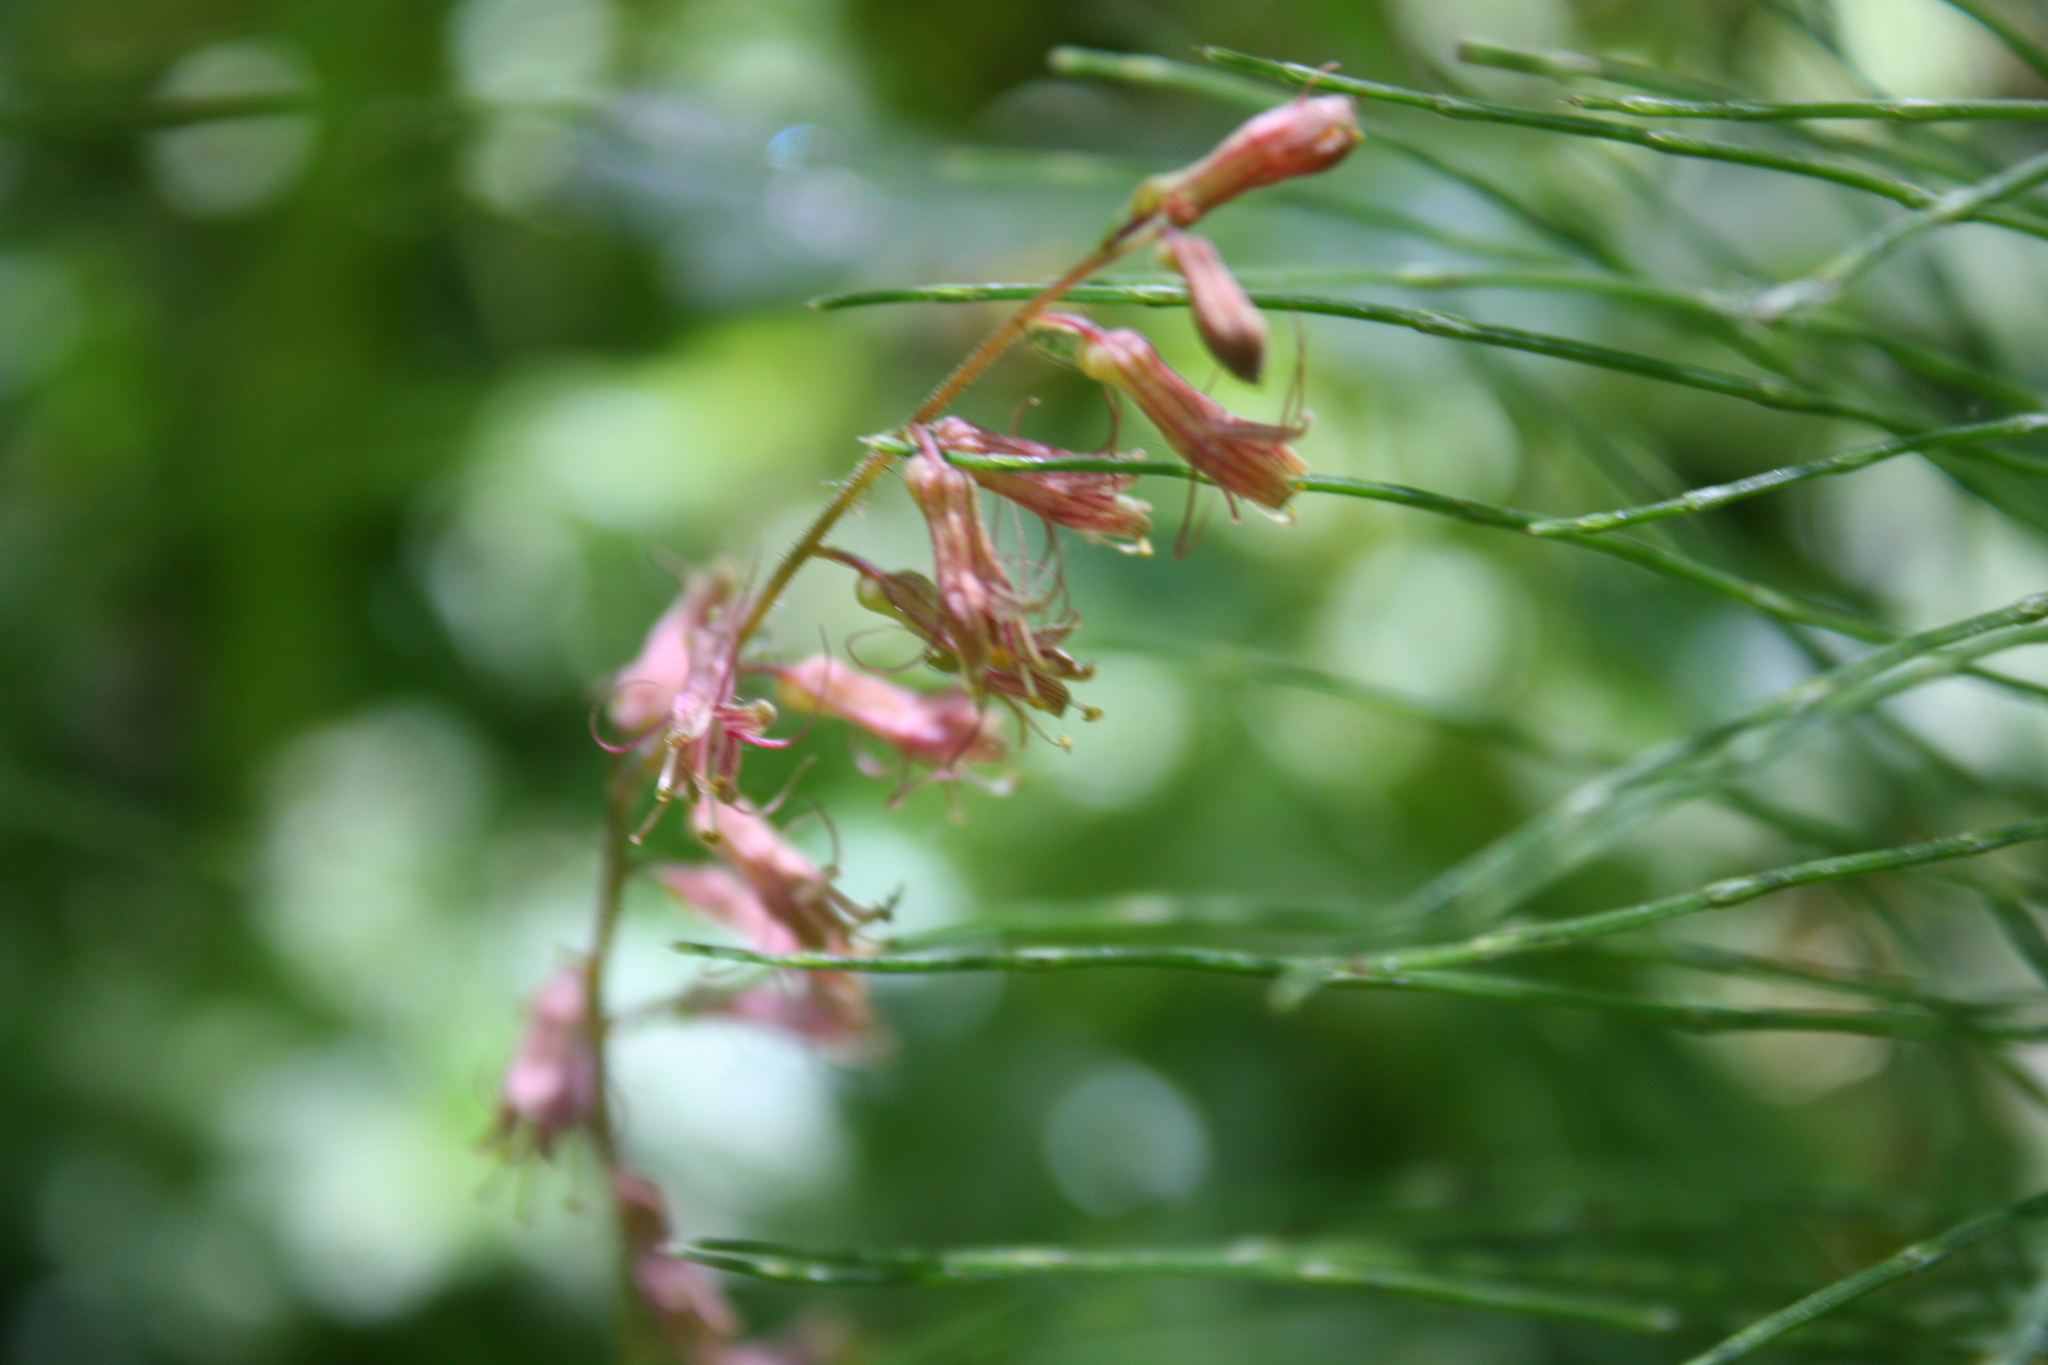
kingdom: Plantae
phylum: Tracheophyta
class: Magnoliopsida
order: Saxifragales
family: Saxifragaceae
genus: Tolmiea
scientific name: Tolmiea diplomenziesii
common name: Youth on age
